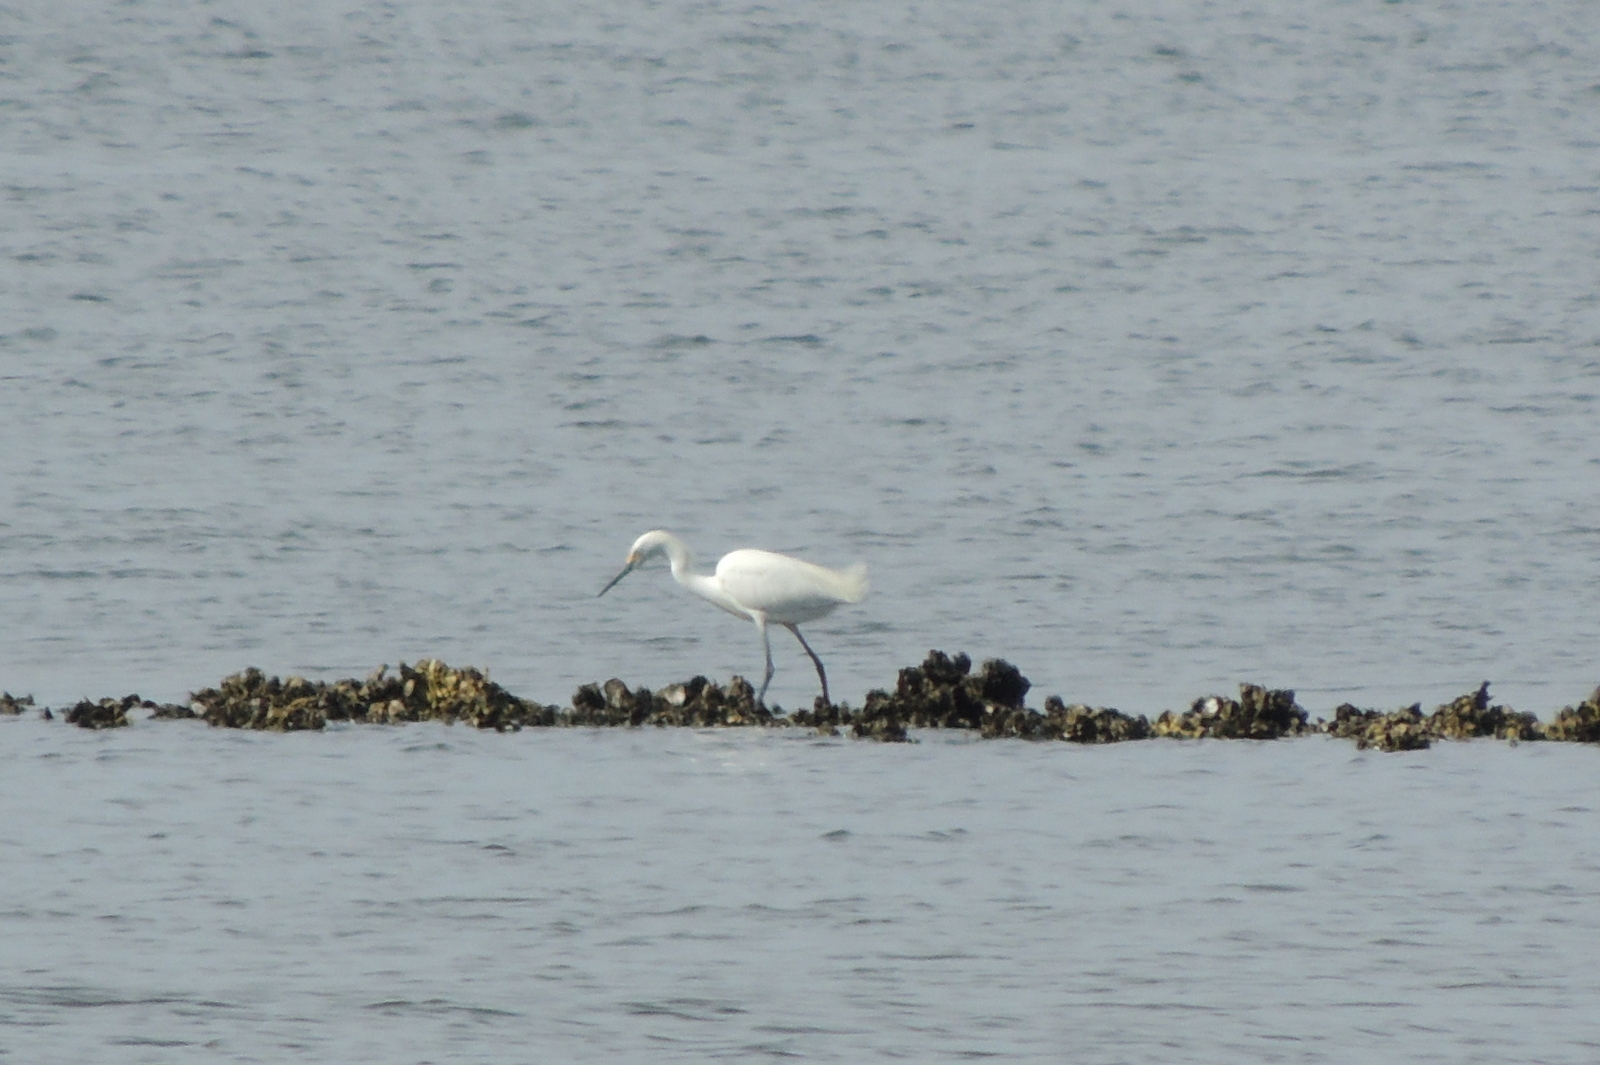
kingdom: Animalia
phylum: Chordata
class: Aves
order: Pelecaniformes
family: Ardeidae
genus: Egretta
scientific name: Egretta thula
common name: Snowy egret
